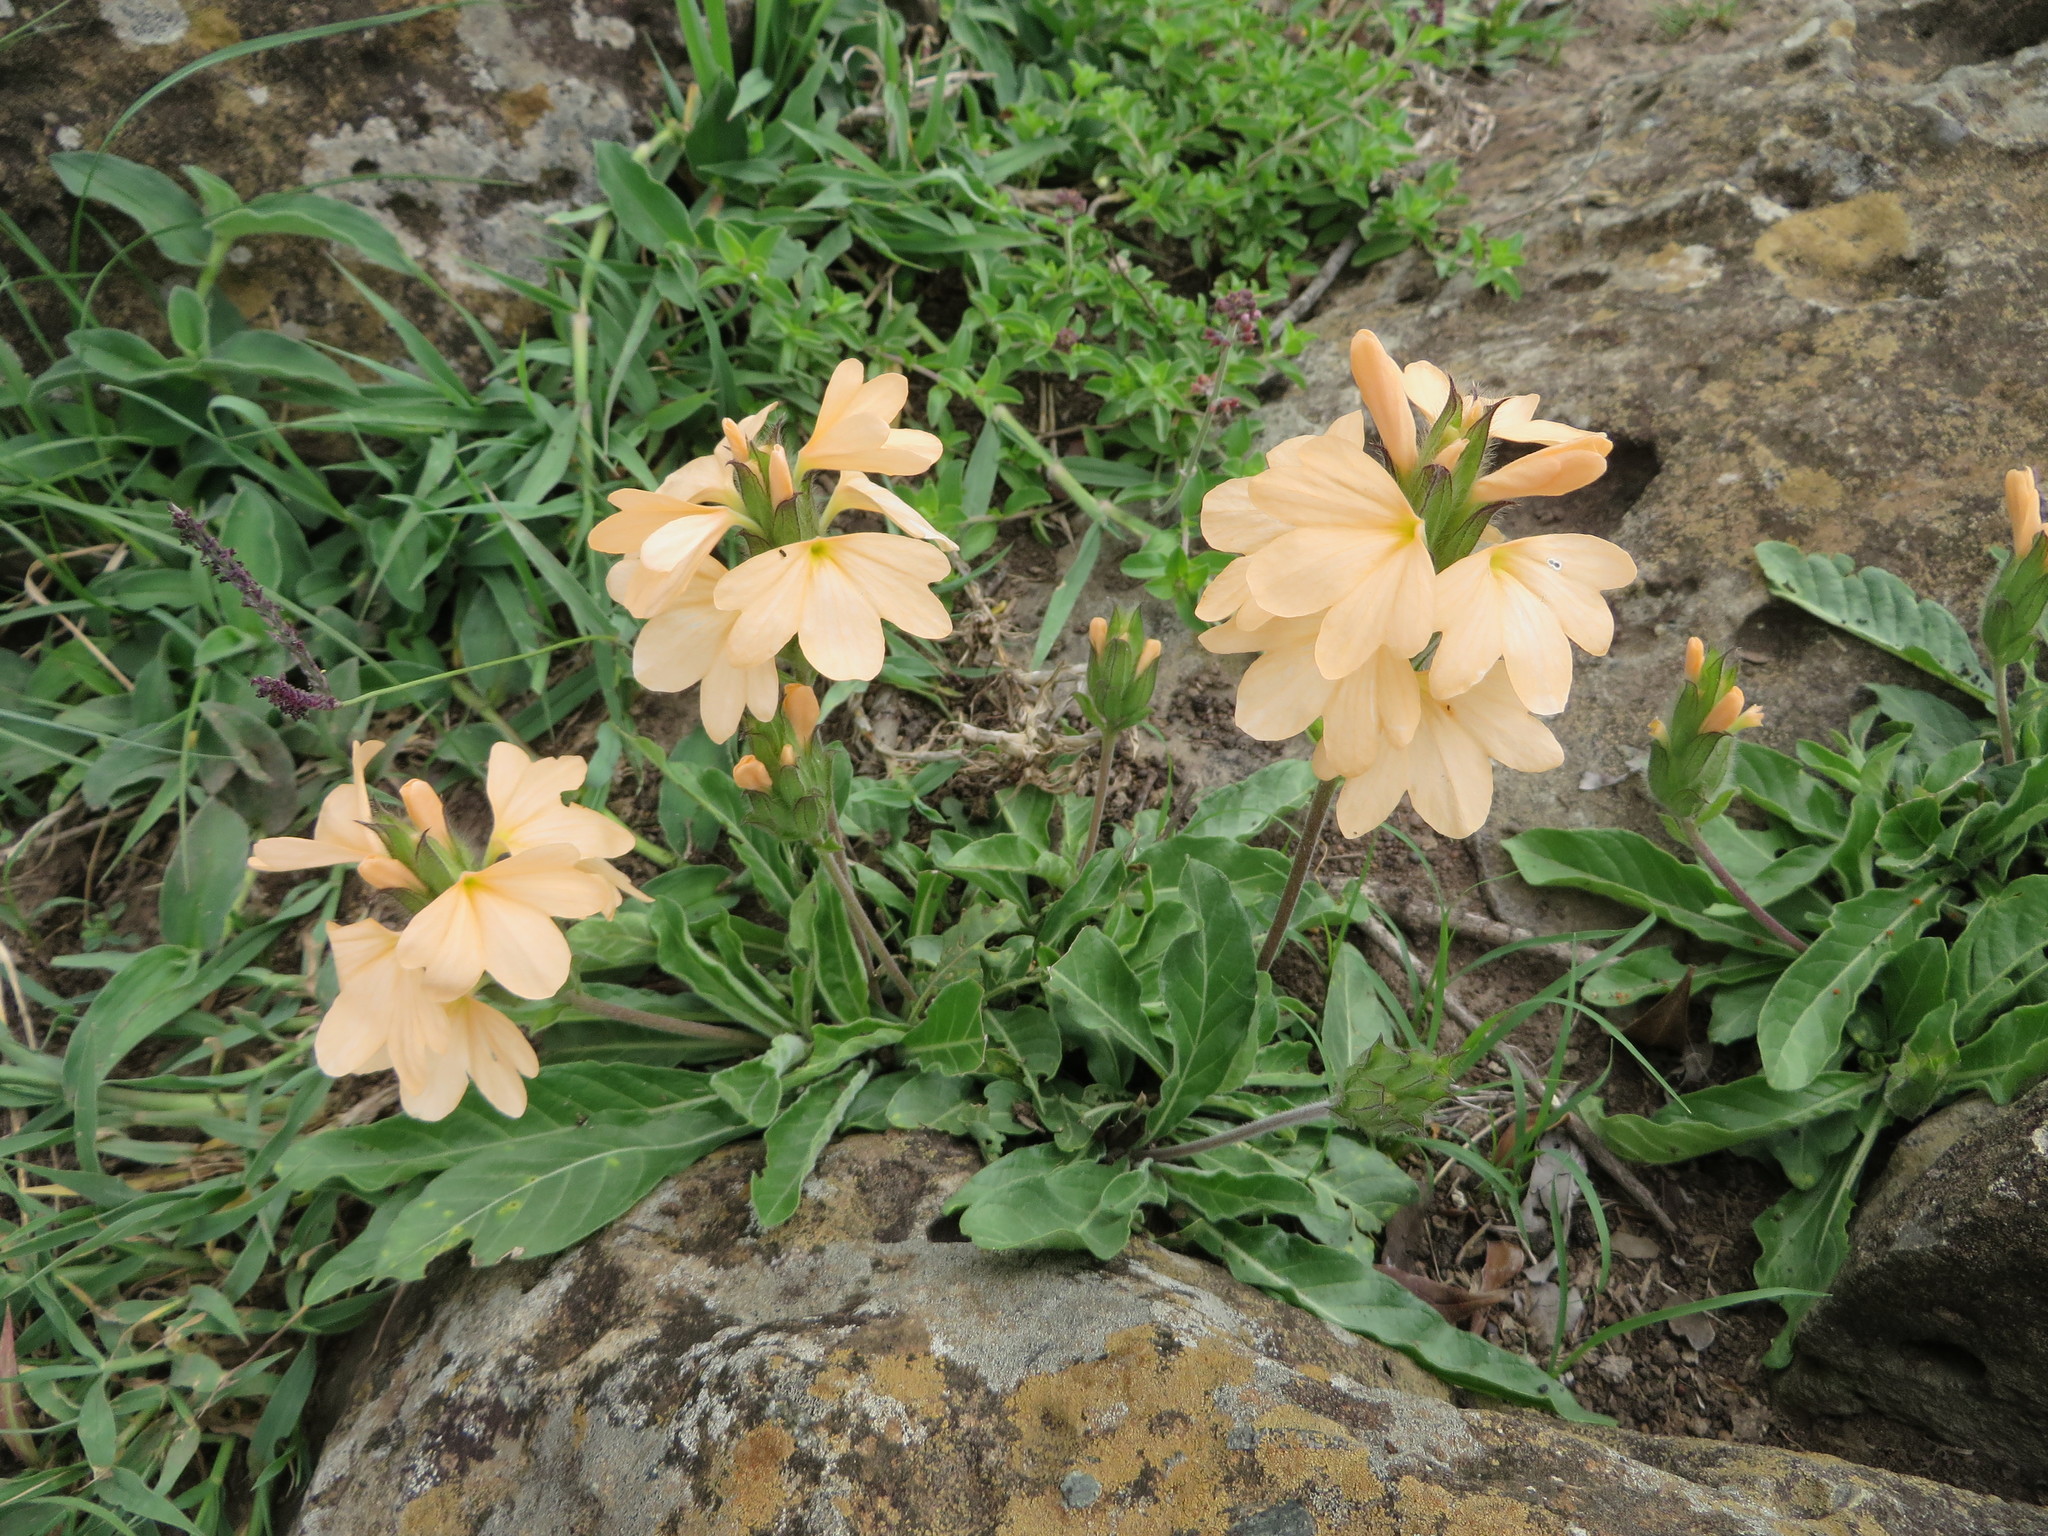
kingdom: Plantae
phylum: Tracheophyta
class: Magnoliopsida
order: Lamiales
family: Acanthaceae
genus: Crossandra
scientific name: Crossandra subacaulis
